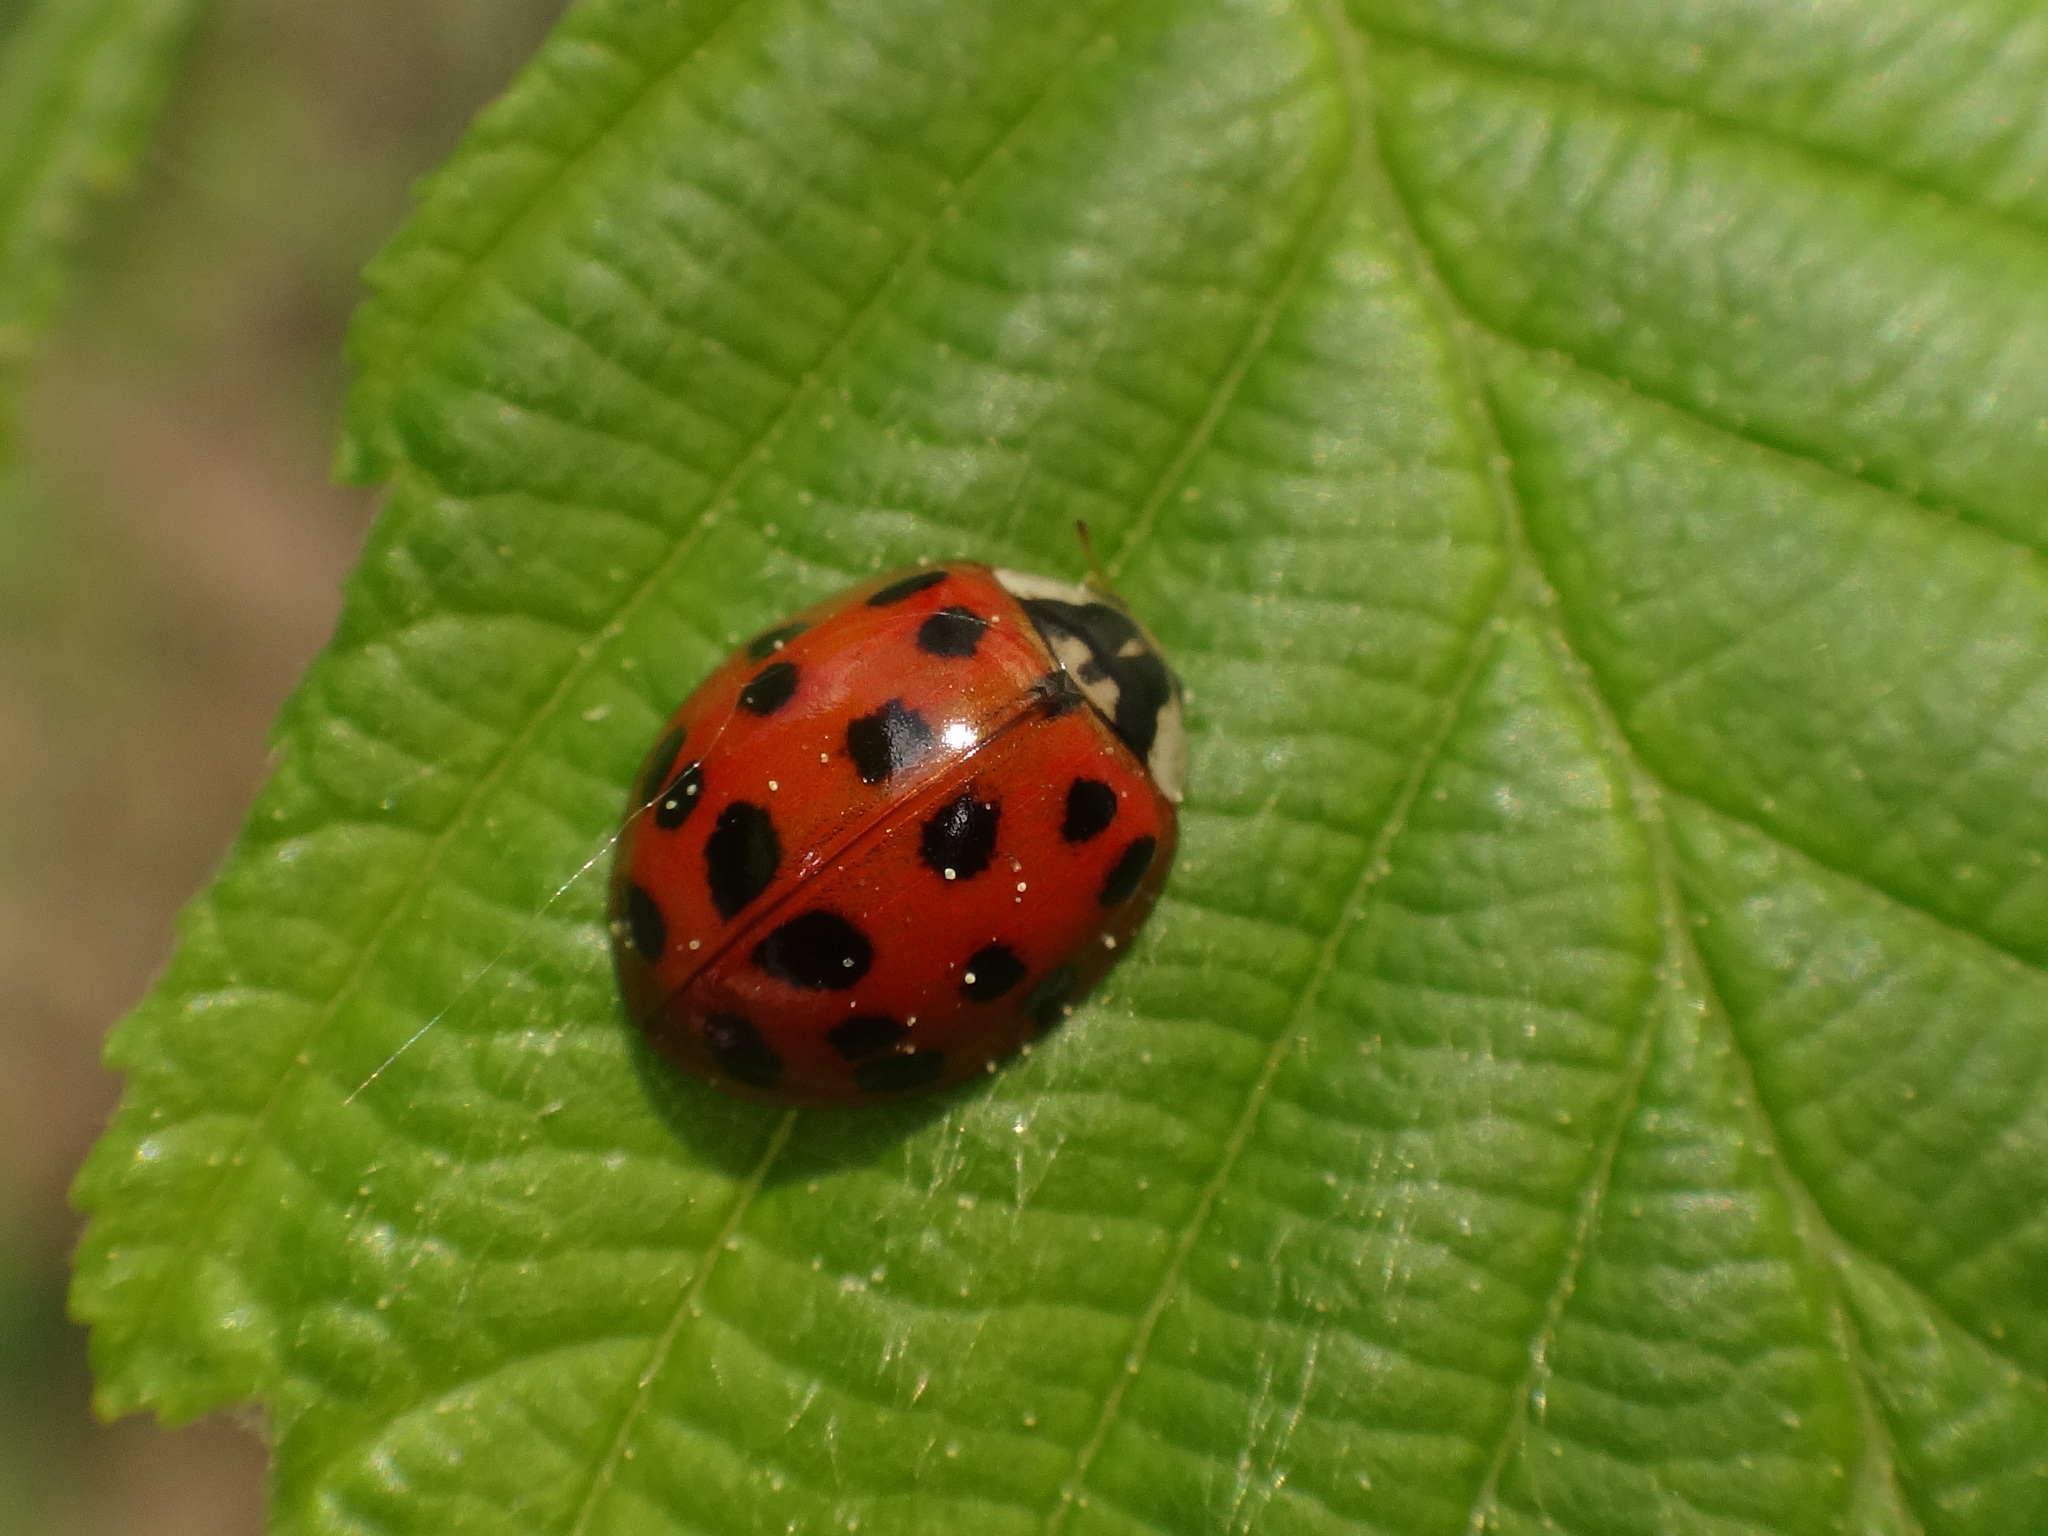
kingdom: Animalia
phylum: Arthropoda
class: Insecta
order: Coleoptera
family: Coccinellidae
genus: Harmonia
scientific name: Harmonia axyridis
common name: Harlequin ladybird
